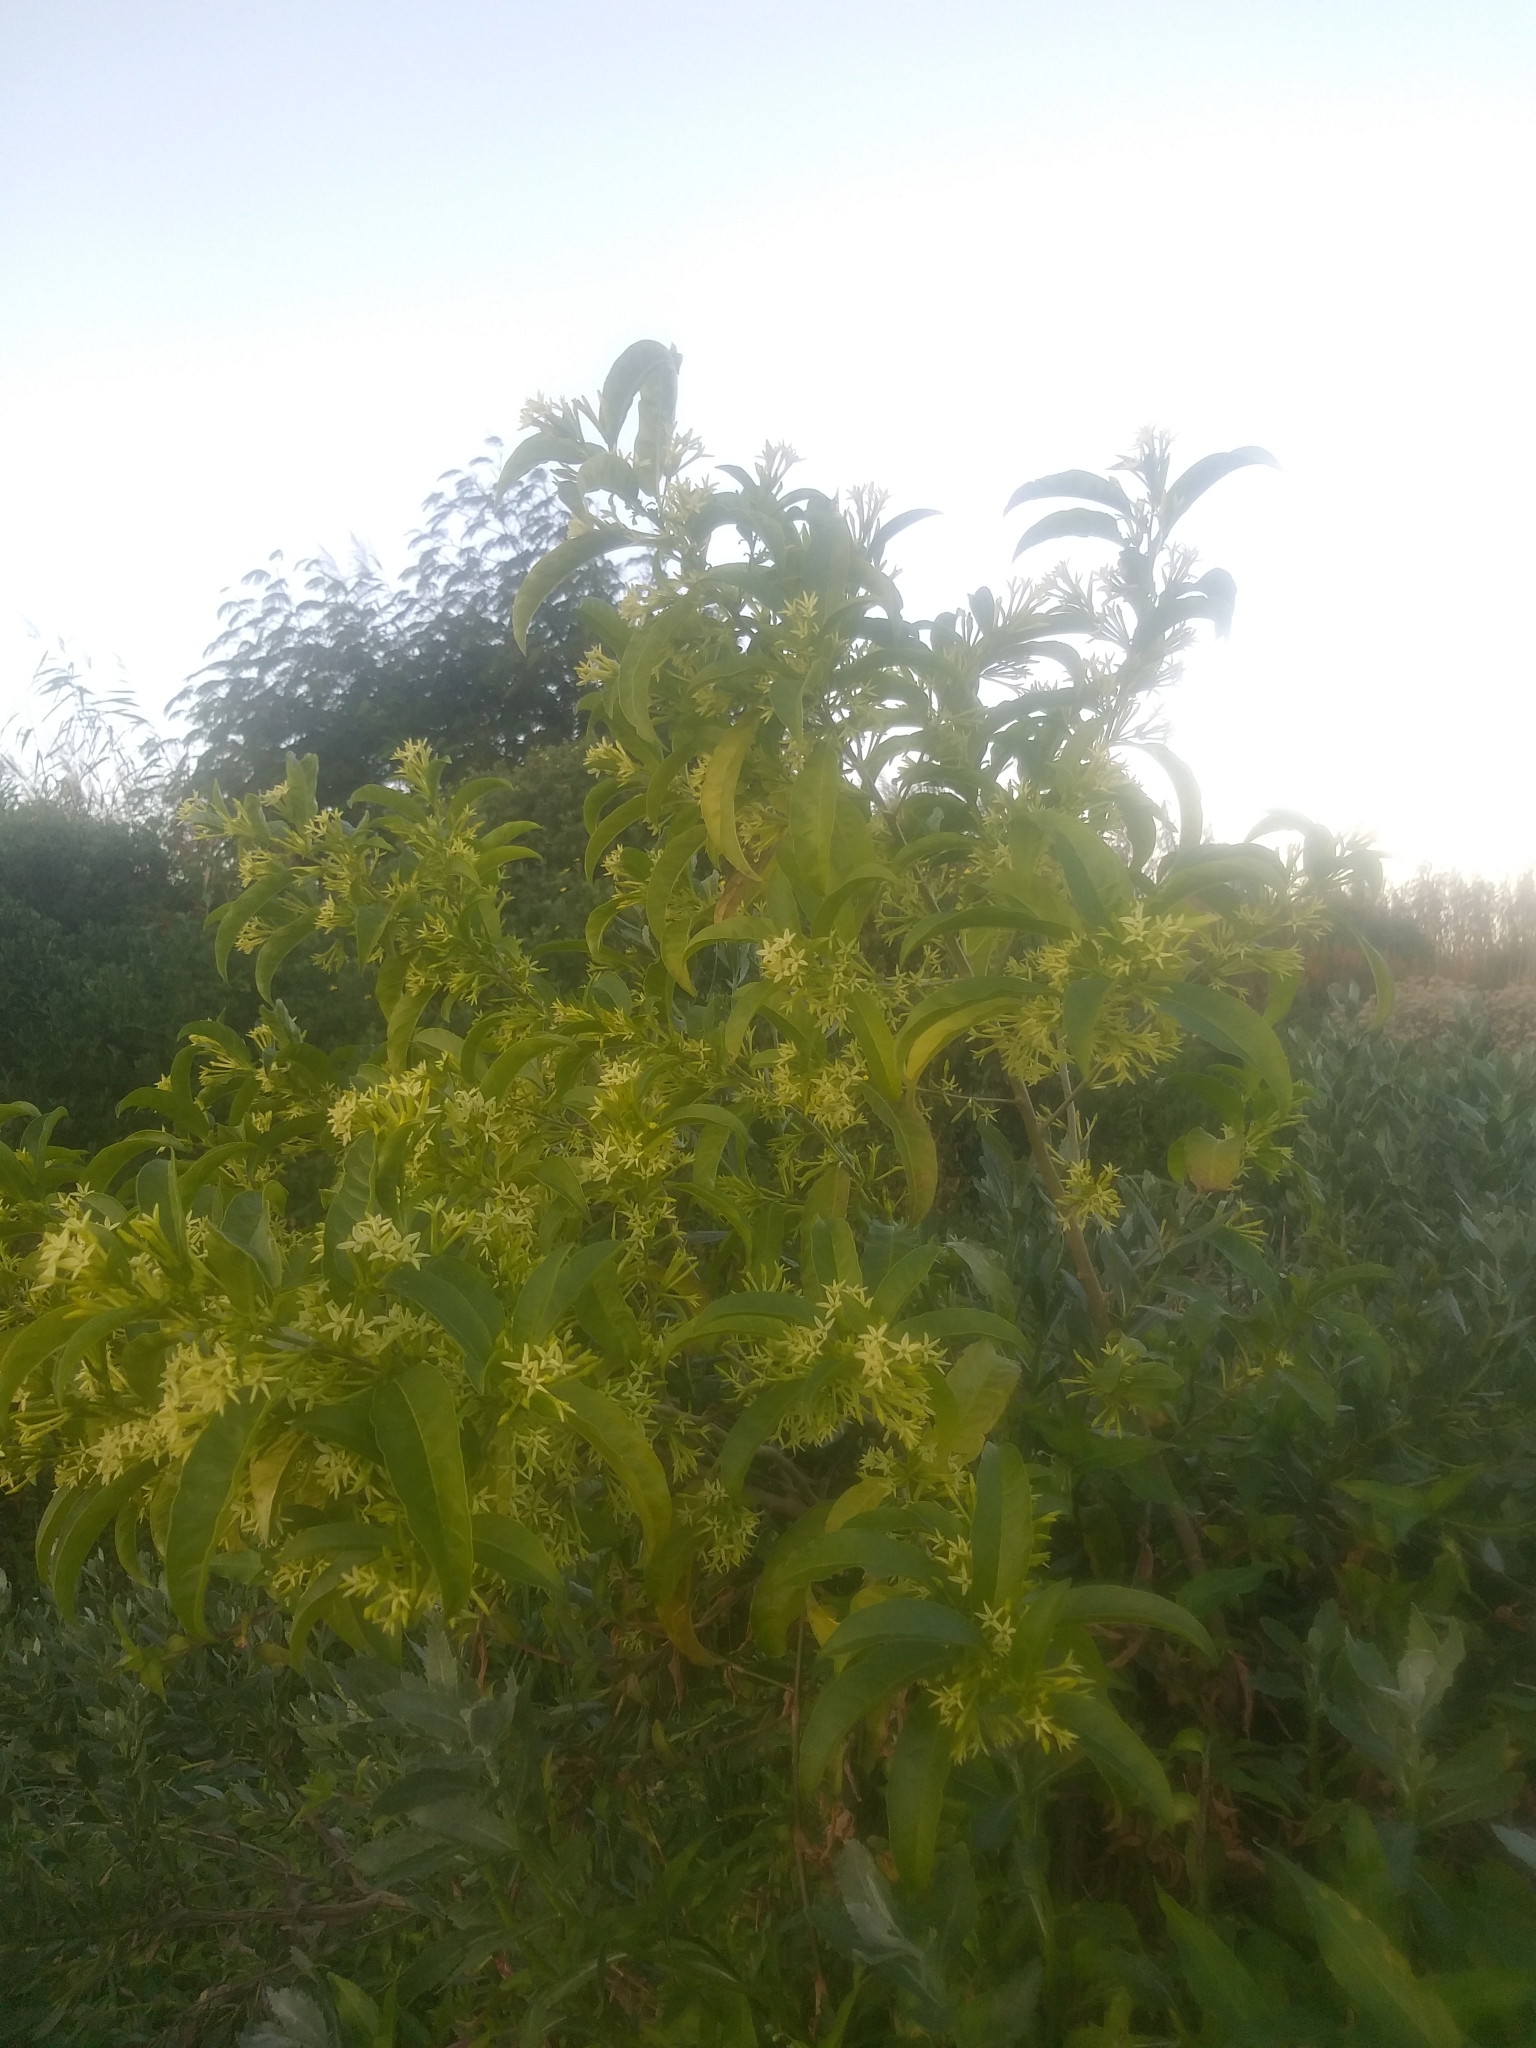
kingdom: Plantae
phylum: Tracheophyta
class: Magnoliopsida
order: Solanales
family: Solanaceae
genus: Cestrum
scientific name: Cestrum laevigatum
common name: Inkberry
